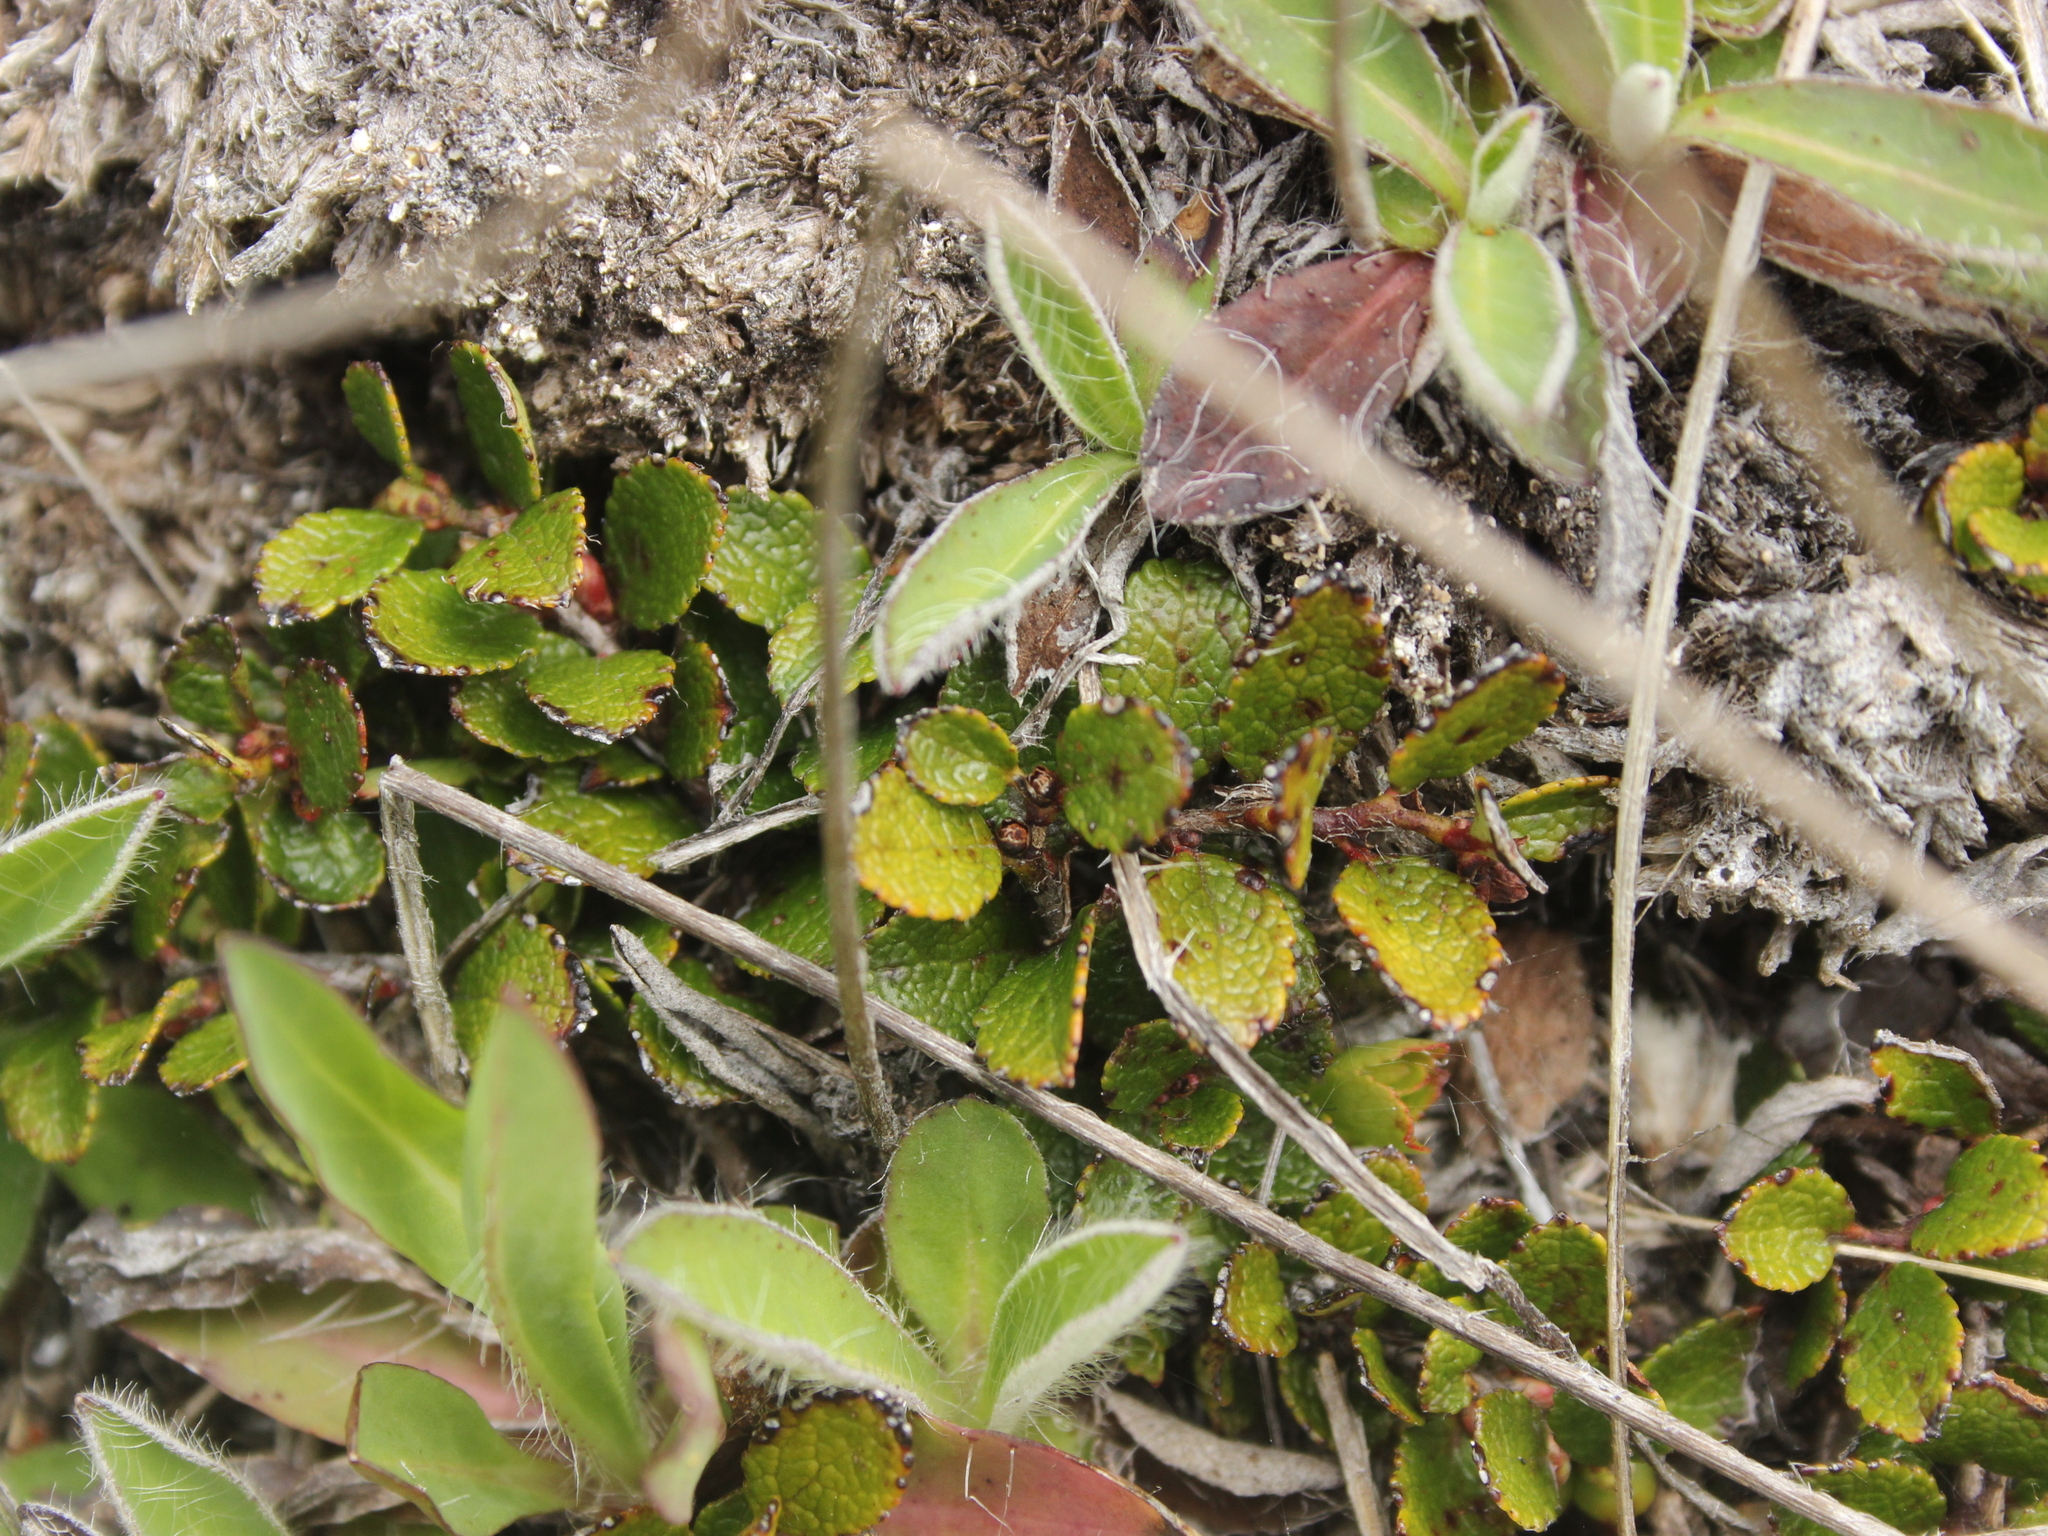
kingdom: Plantae
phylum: Tracheophyta
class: Magnoliopsida
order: Ericales
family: Ericaceae
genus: Gaultheria
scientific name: Gaultheria depressa
